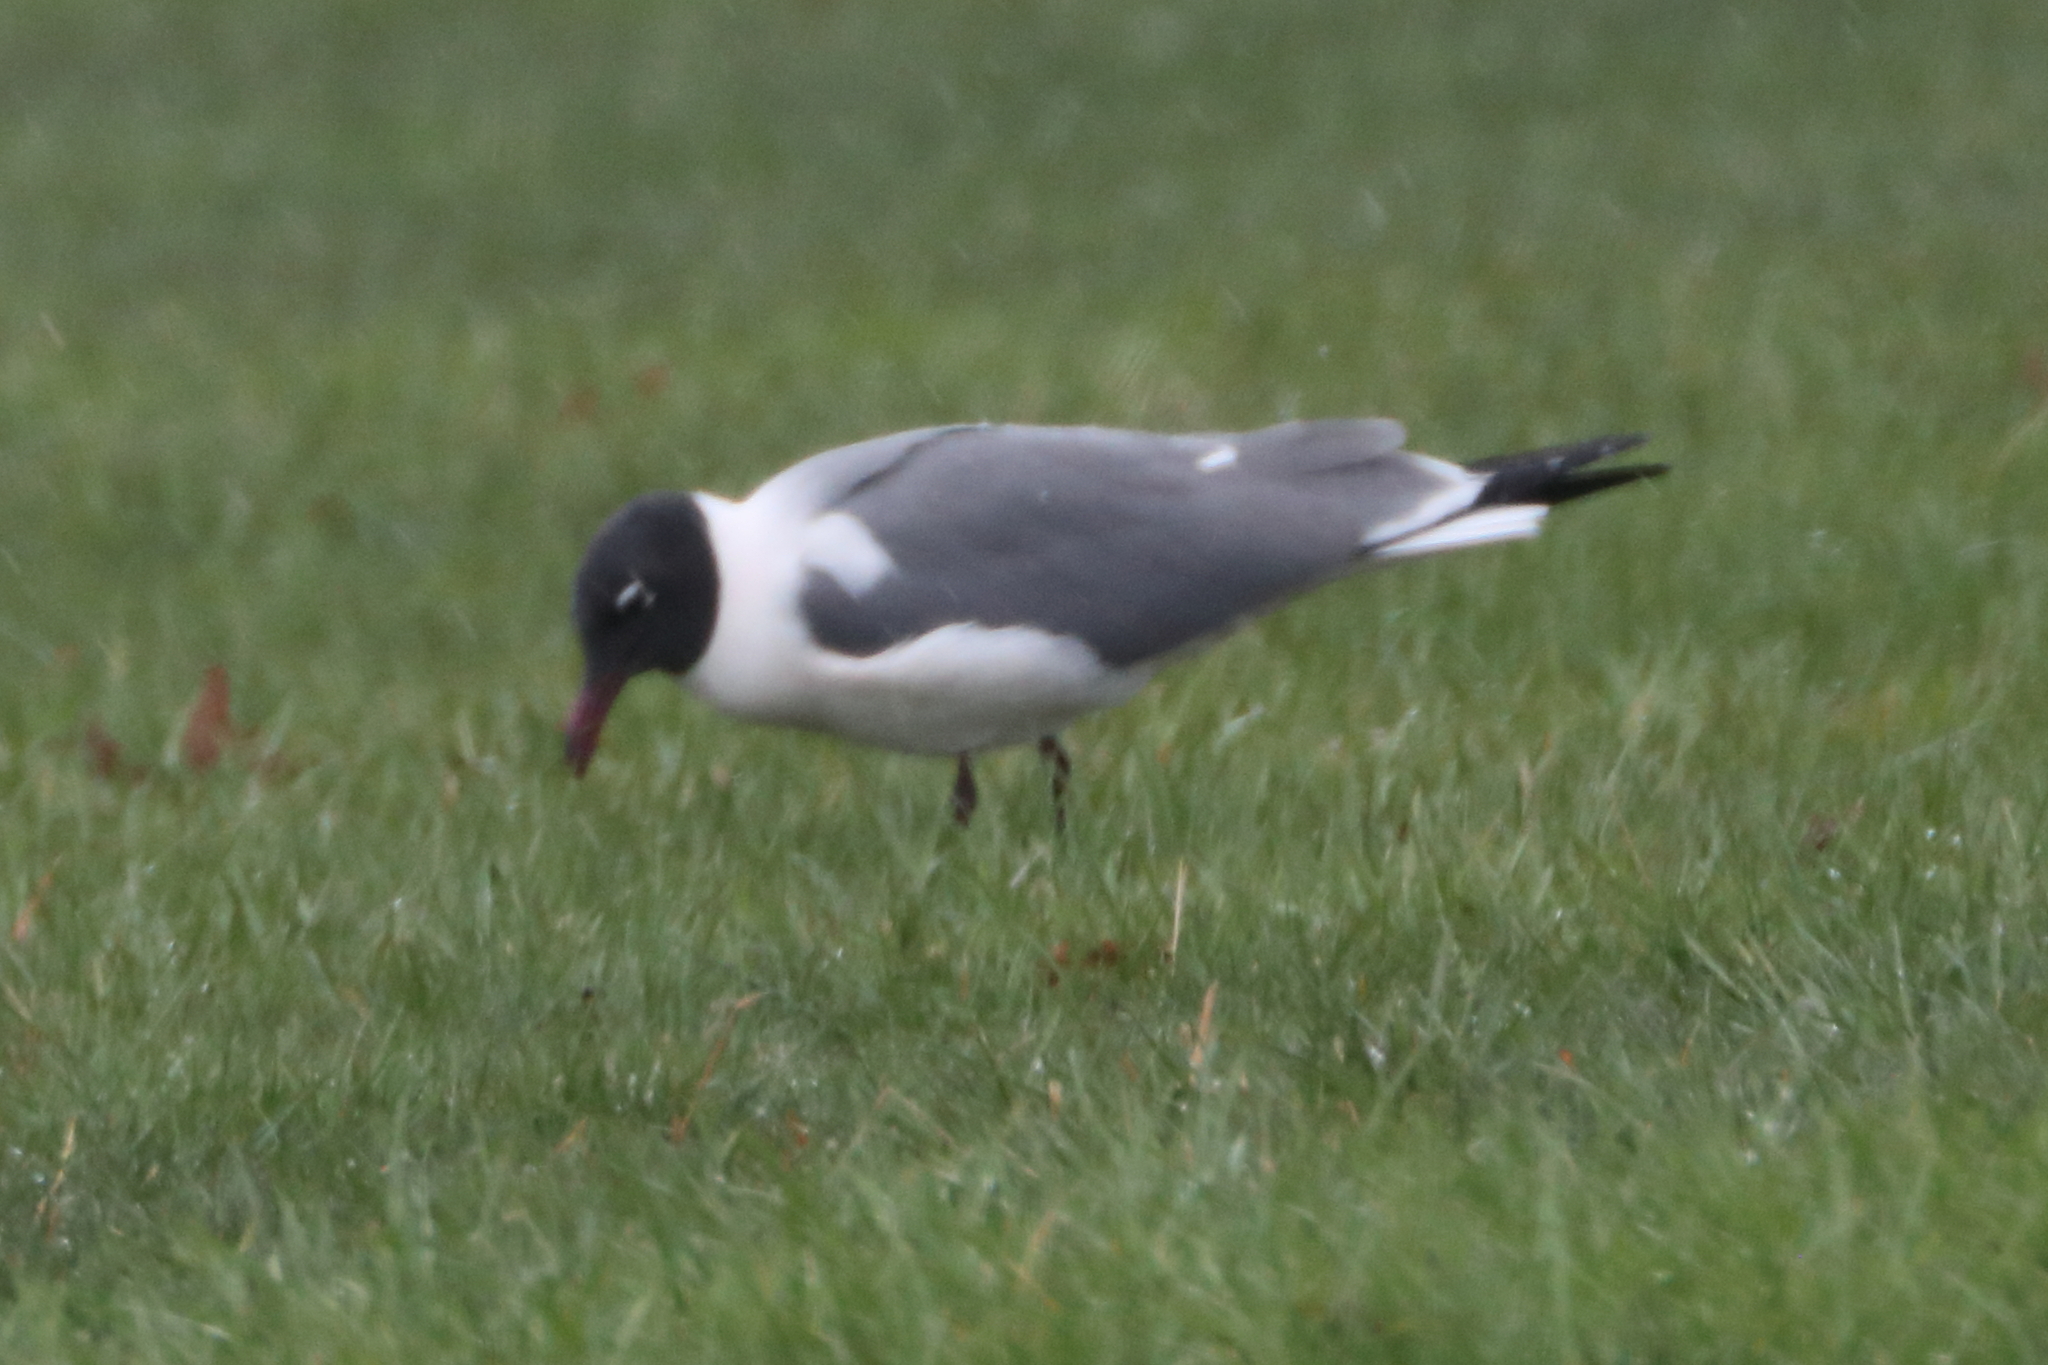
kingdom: Animalia
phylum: Chordata
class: Aves
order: Charadriiformes
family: Laridae
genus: Leucophaeus
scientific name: Leucophaeus atricilla
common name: Laughing gull
